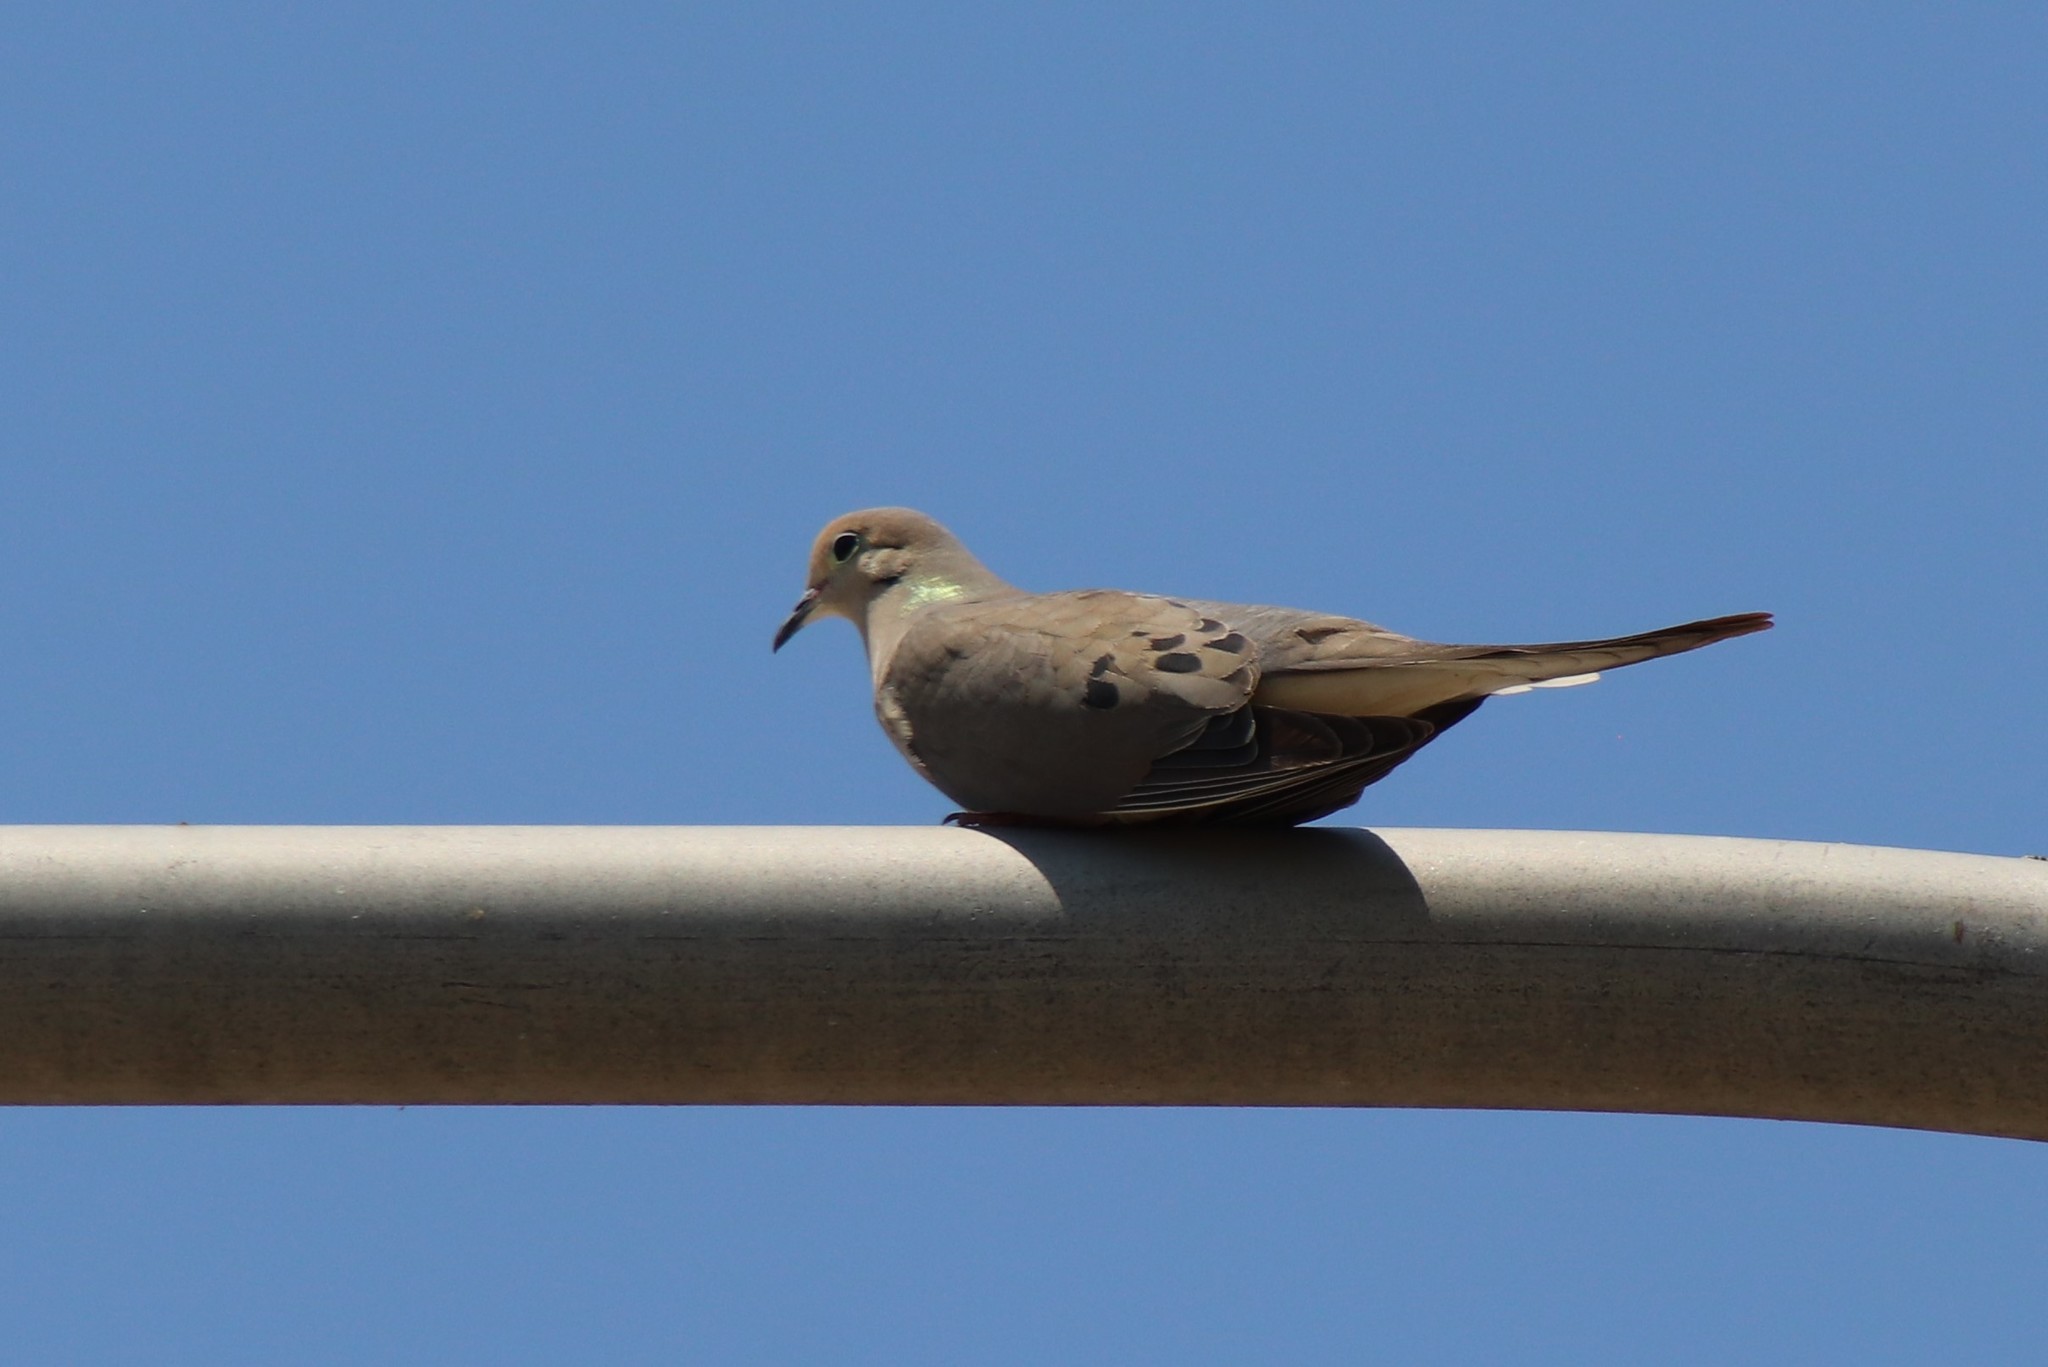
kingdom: Animalia
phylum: Chordata
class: Aves
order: Columbiformes
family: Columbidae
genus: Zenaida
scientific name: Zenaida macroura
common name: Mourning dove
